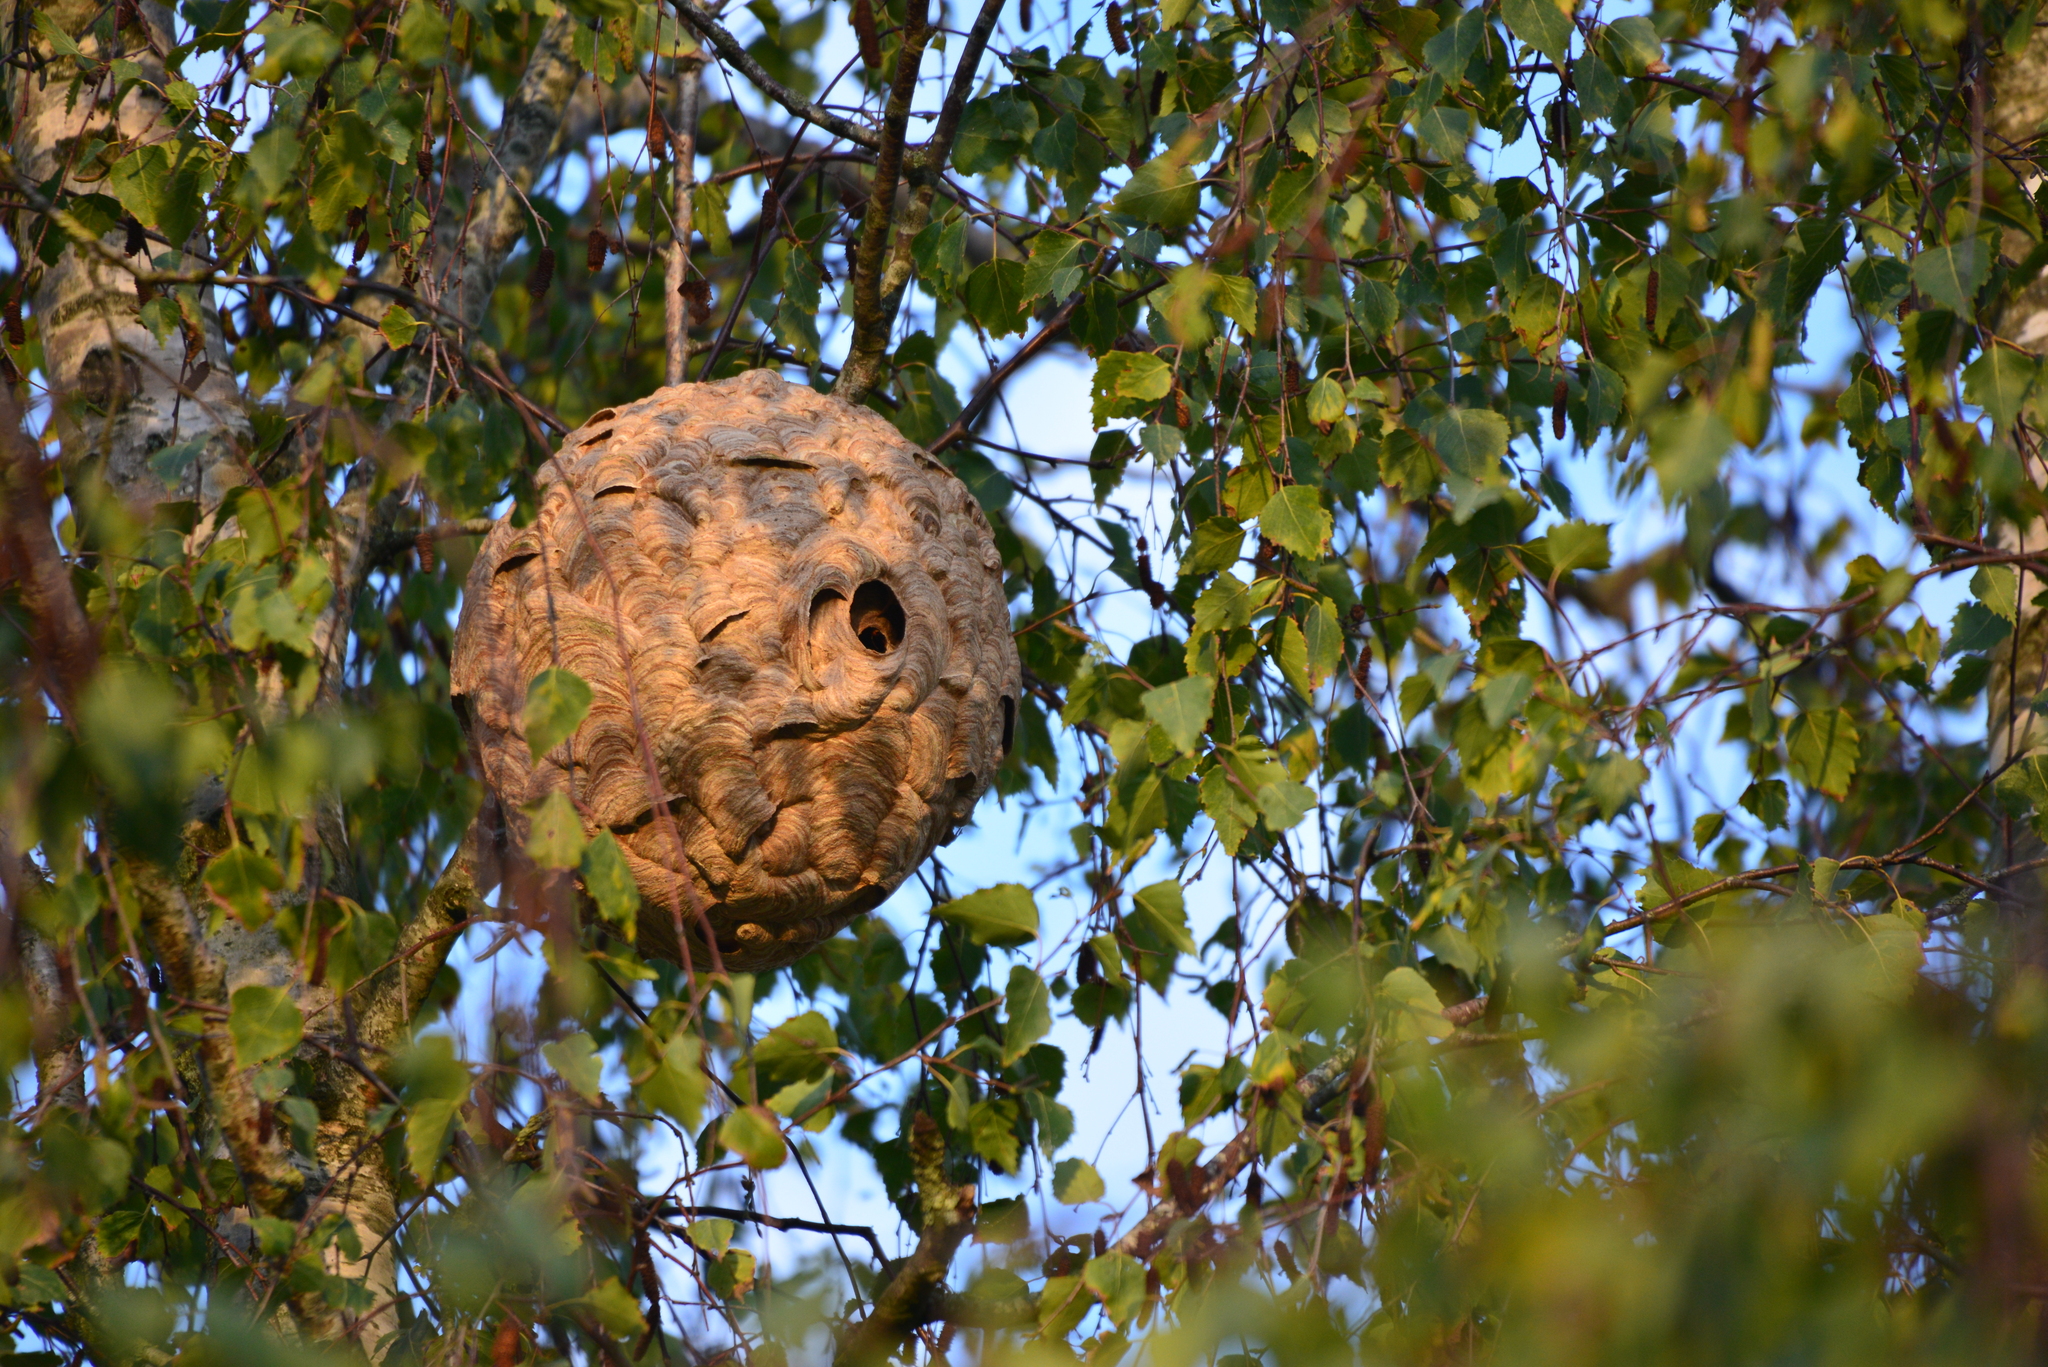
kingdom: Animalia
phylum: Arthropoda
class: Insecta
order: Hymenoptera
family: Vespidae
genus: Vespa
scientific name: Vespa velutina
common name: Asian hornet
